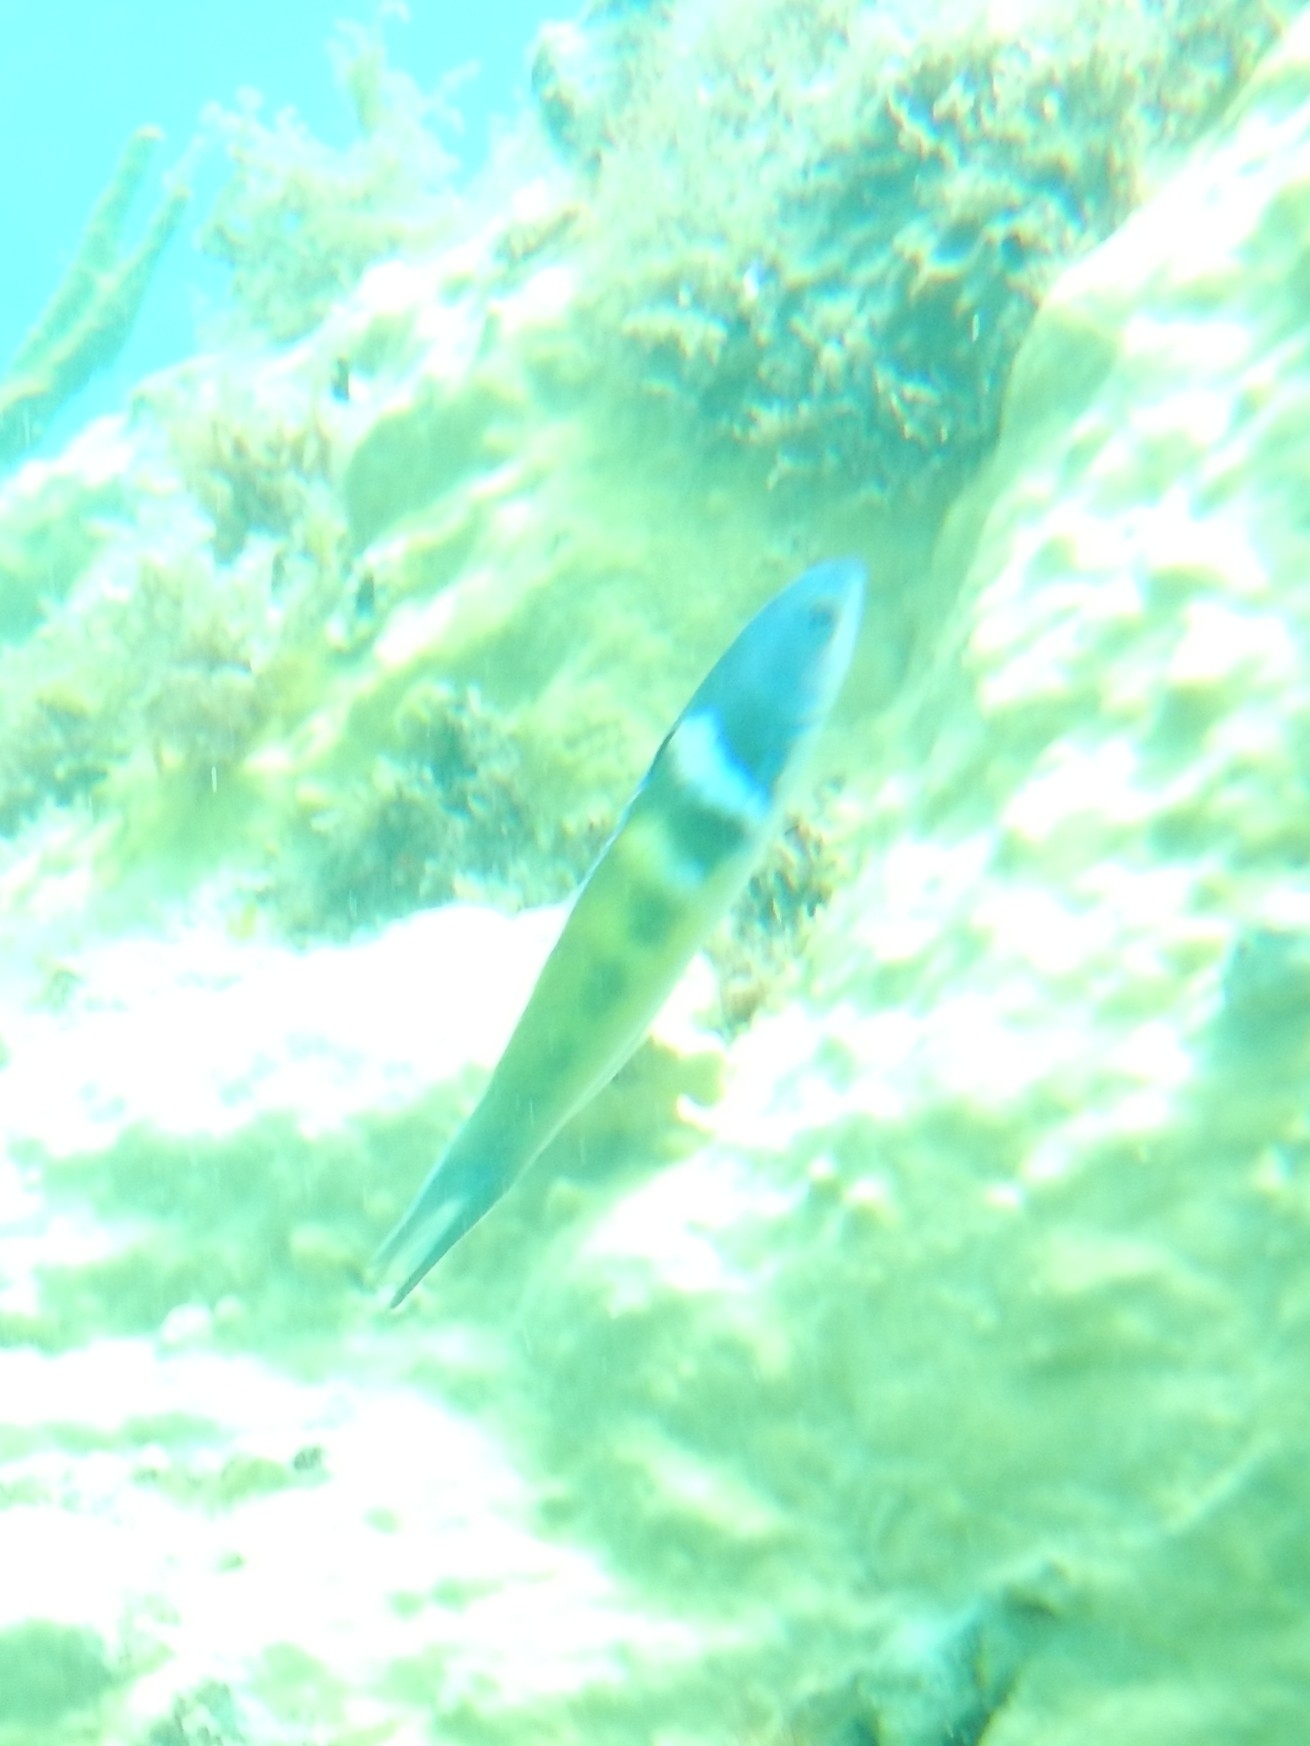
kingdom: Animalia
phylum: Chordata
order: Perciformes
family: Labridae
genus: Thalassoma
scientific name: Thalassoma bifasciatum
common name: Bluehead wrasse
